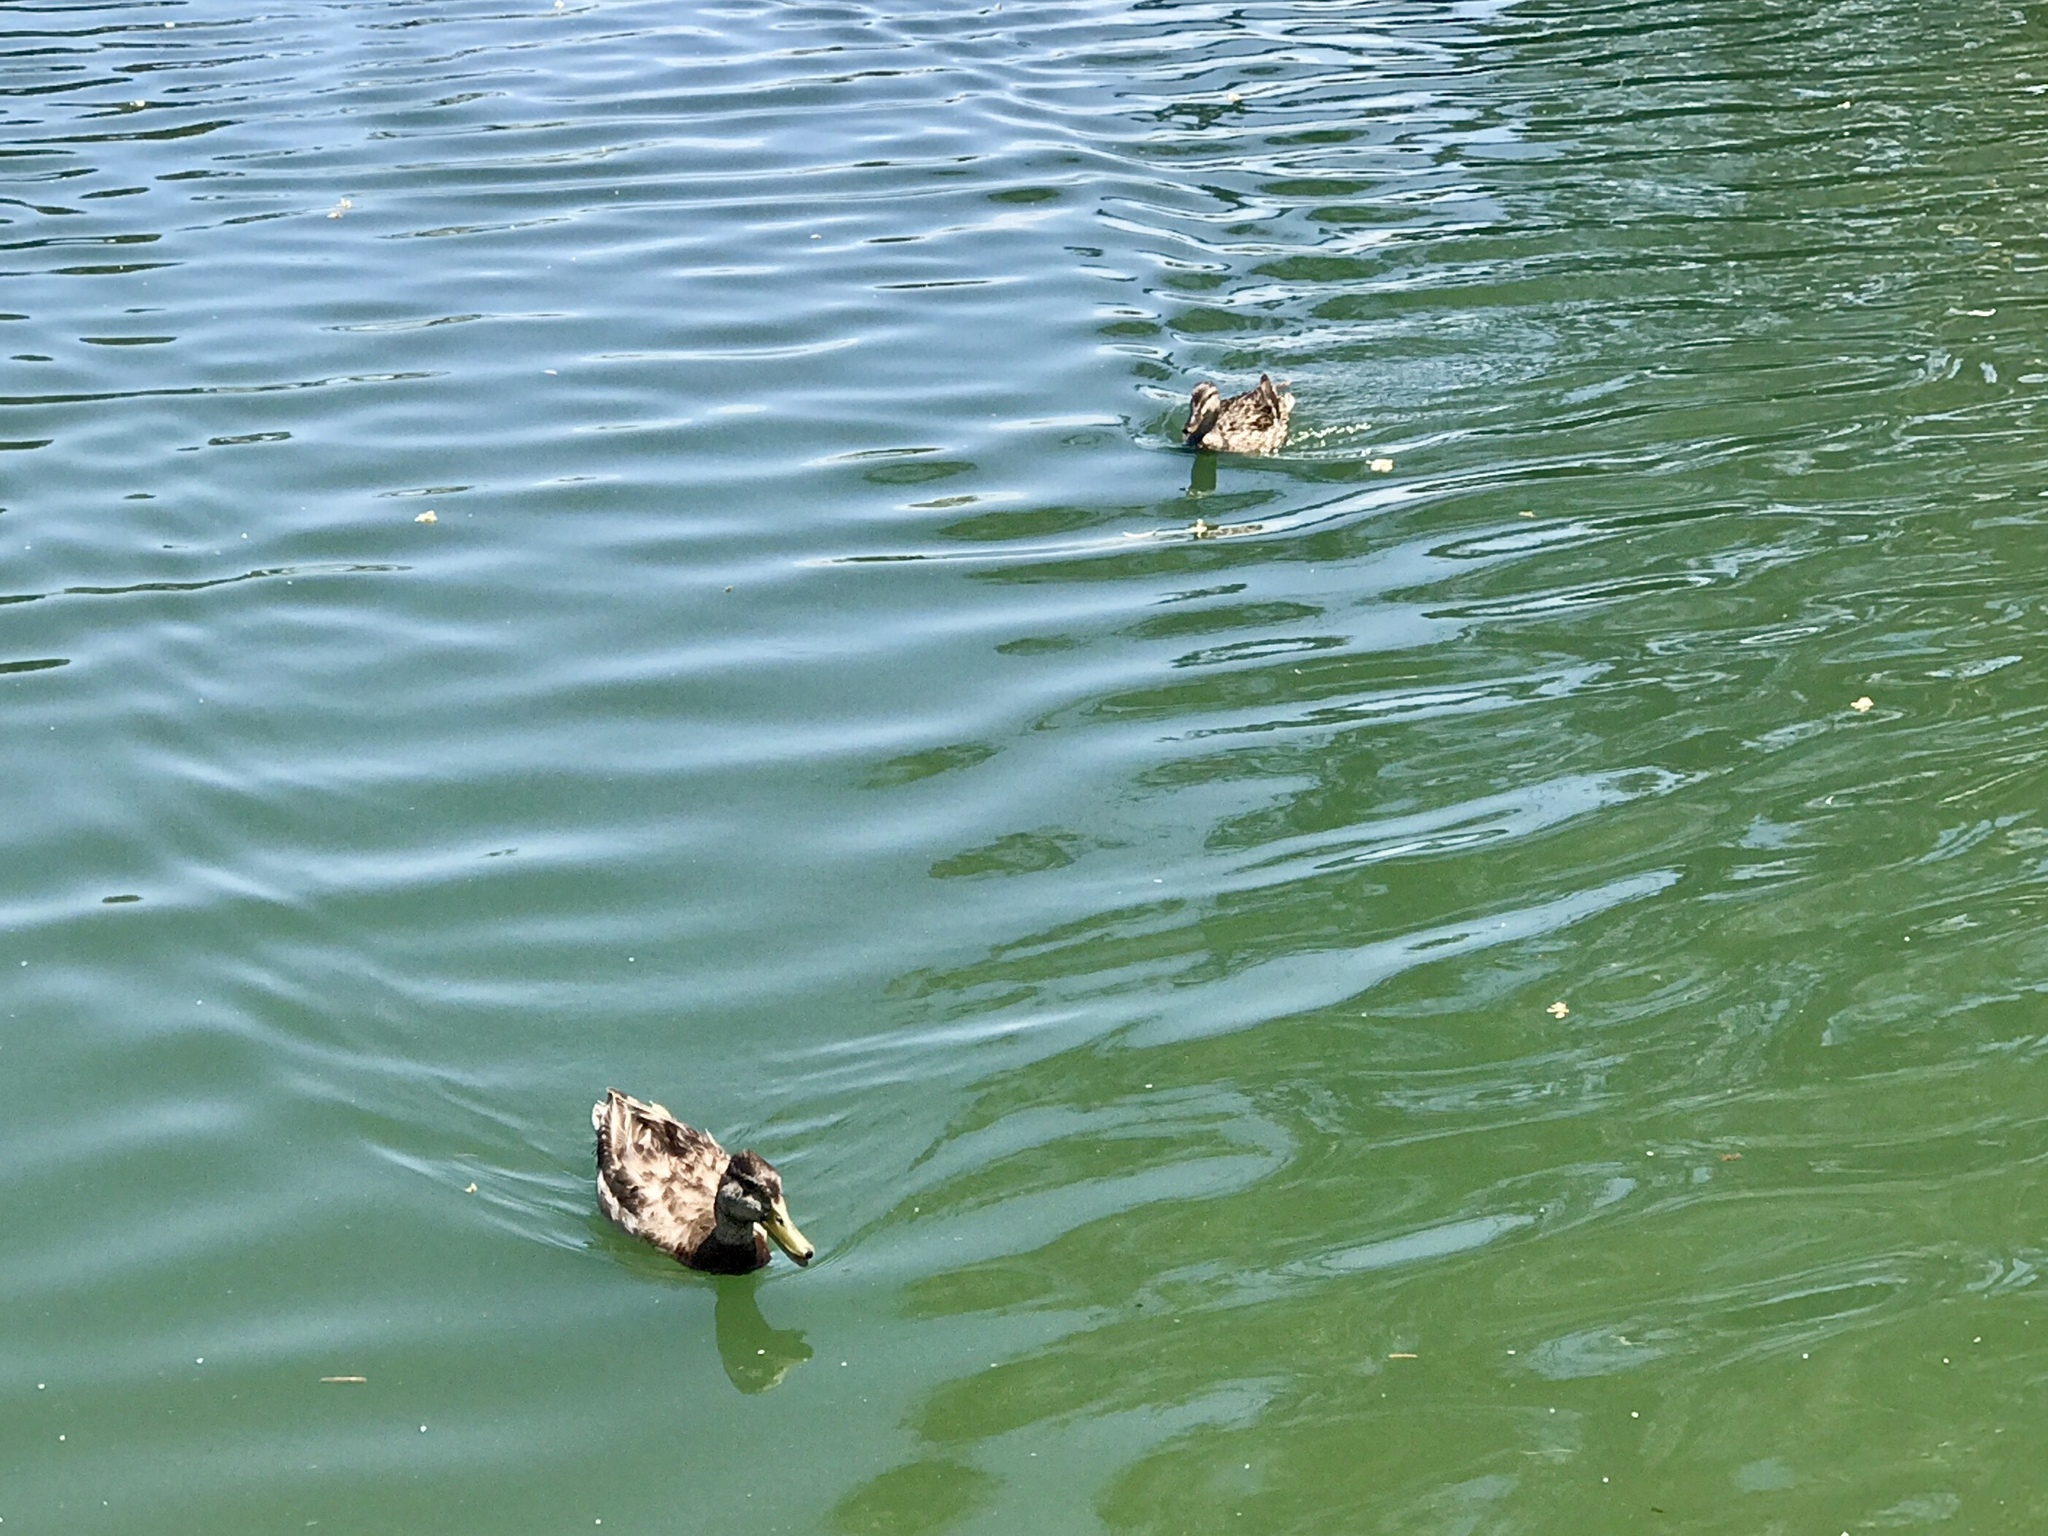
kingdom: Animalia
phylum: Chordata
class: Aves
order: Anseriformes
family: Anatidae
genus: Anas
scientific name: Anas platyrhynchos
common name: Mallard
